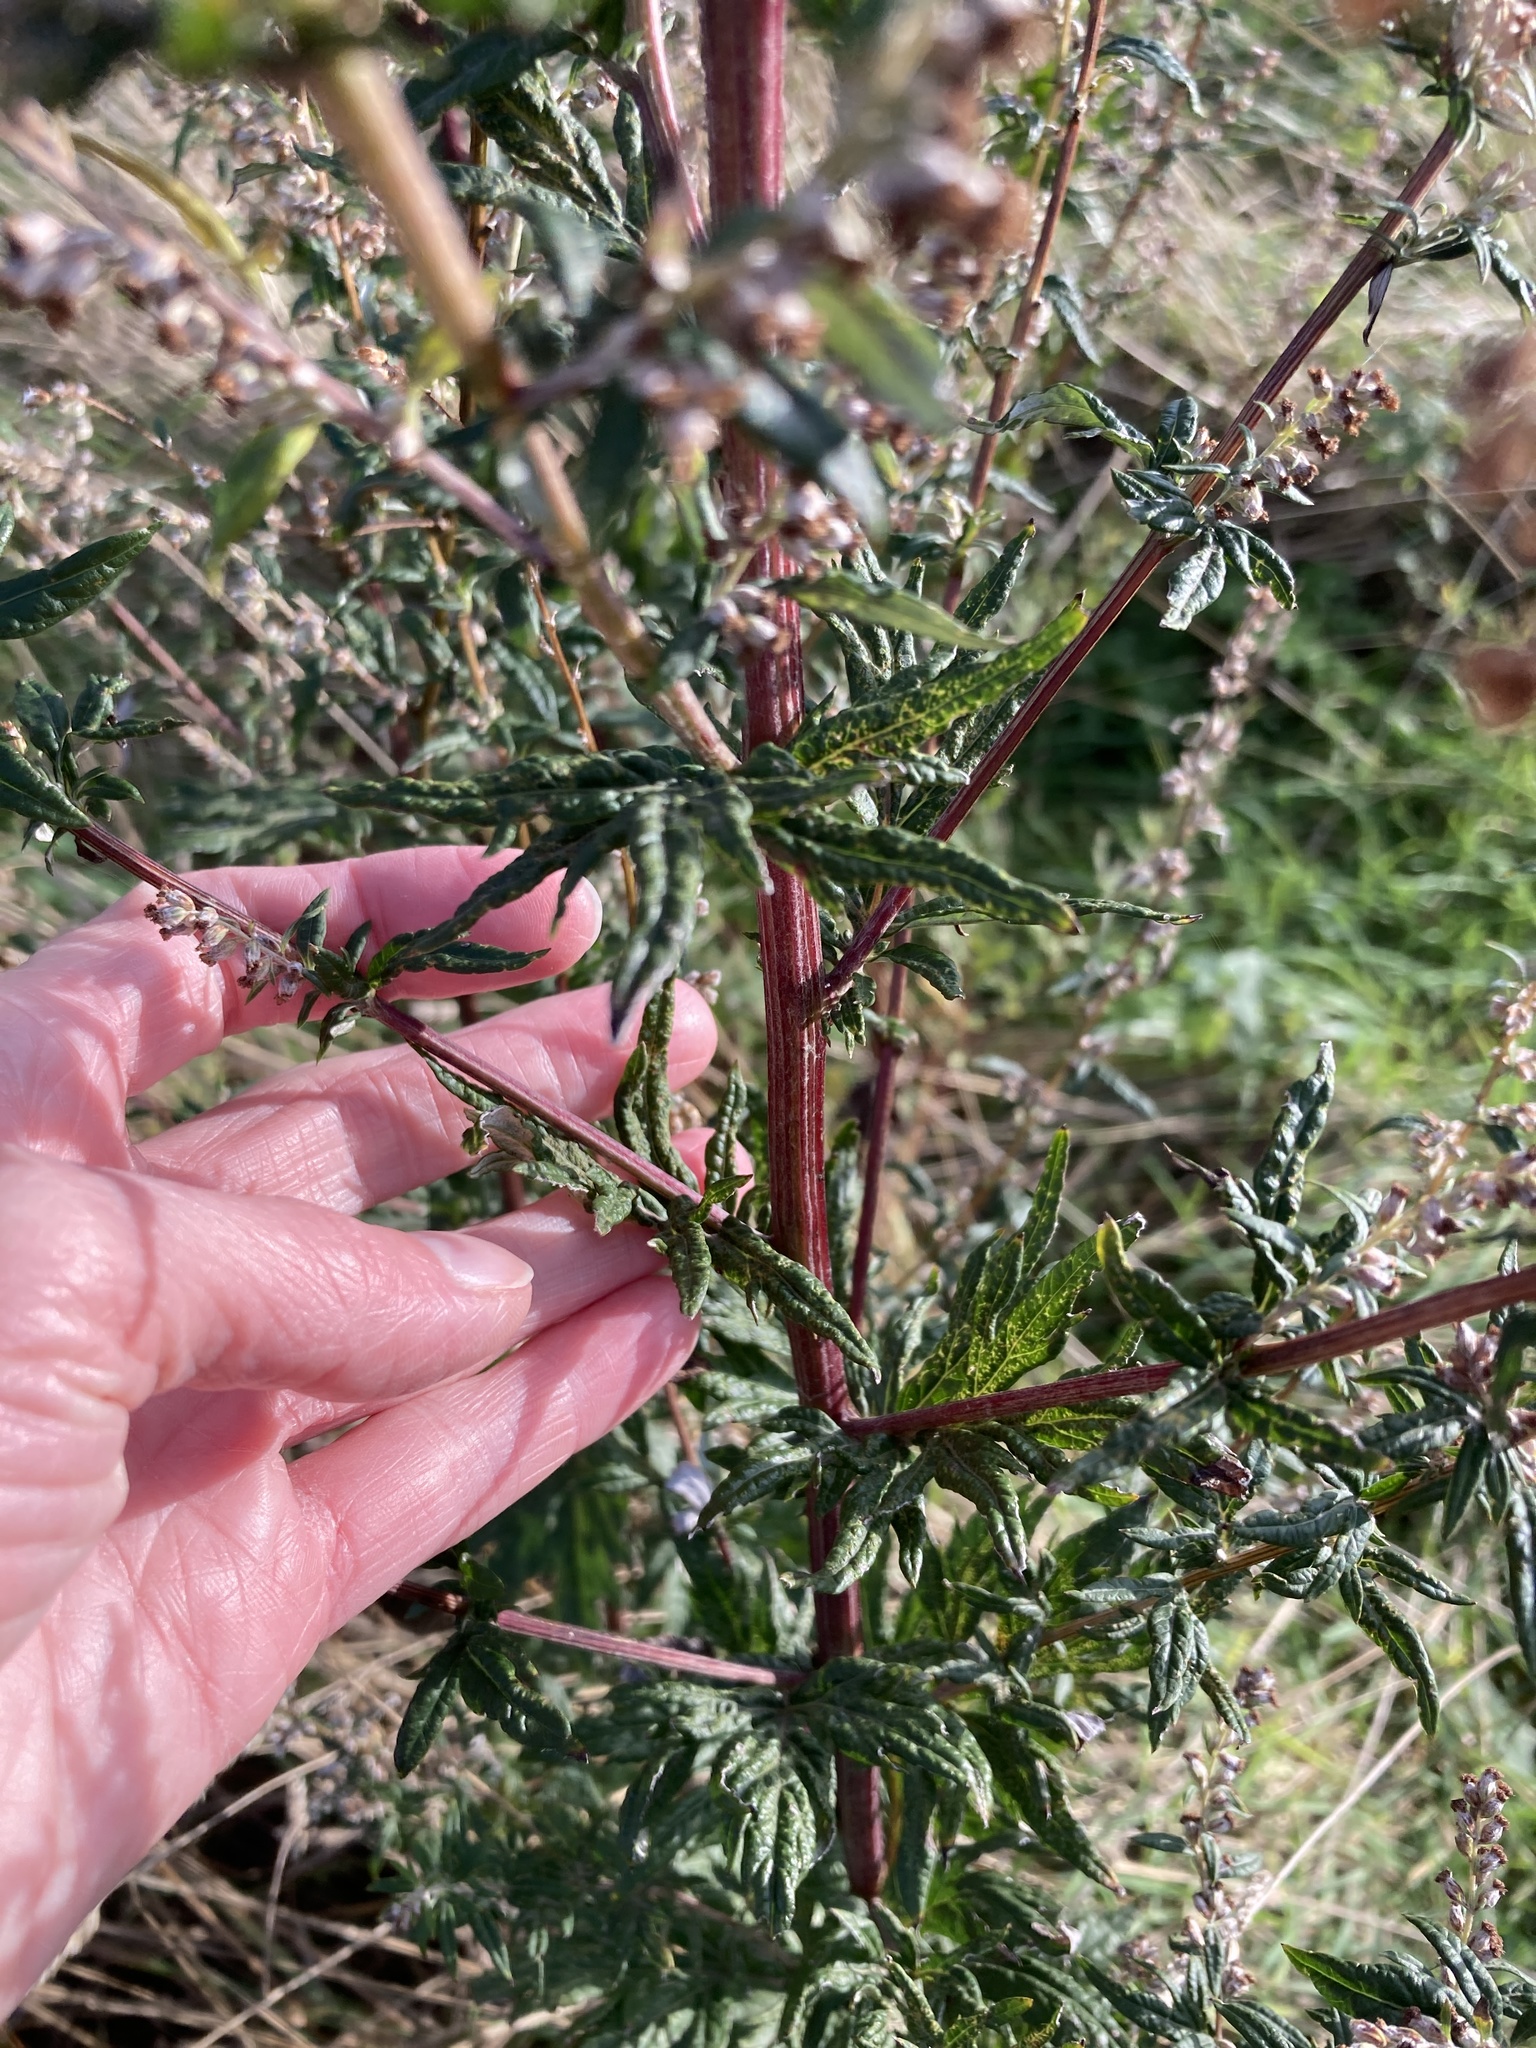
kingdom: Plantae
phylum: Tracheophyta
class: Magnoliopsida
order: Asterales
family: Asteraceae
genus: Artemisia
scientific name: Artemisia vulgaris
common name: Mugwort
